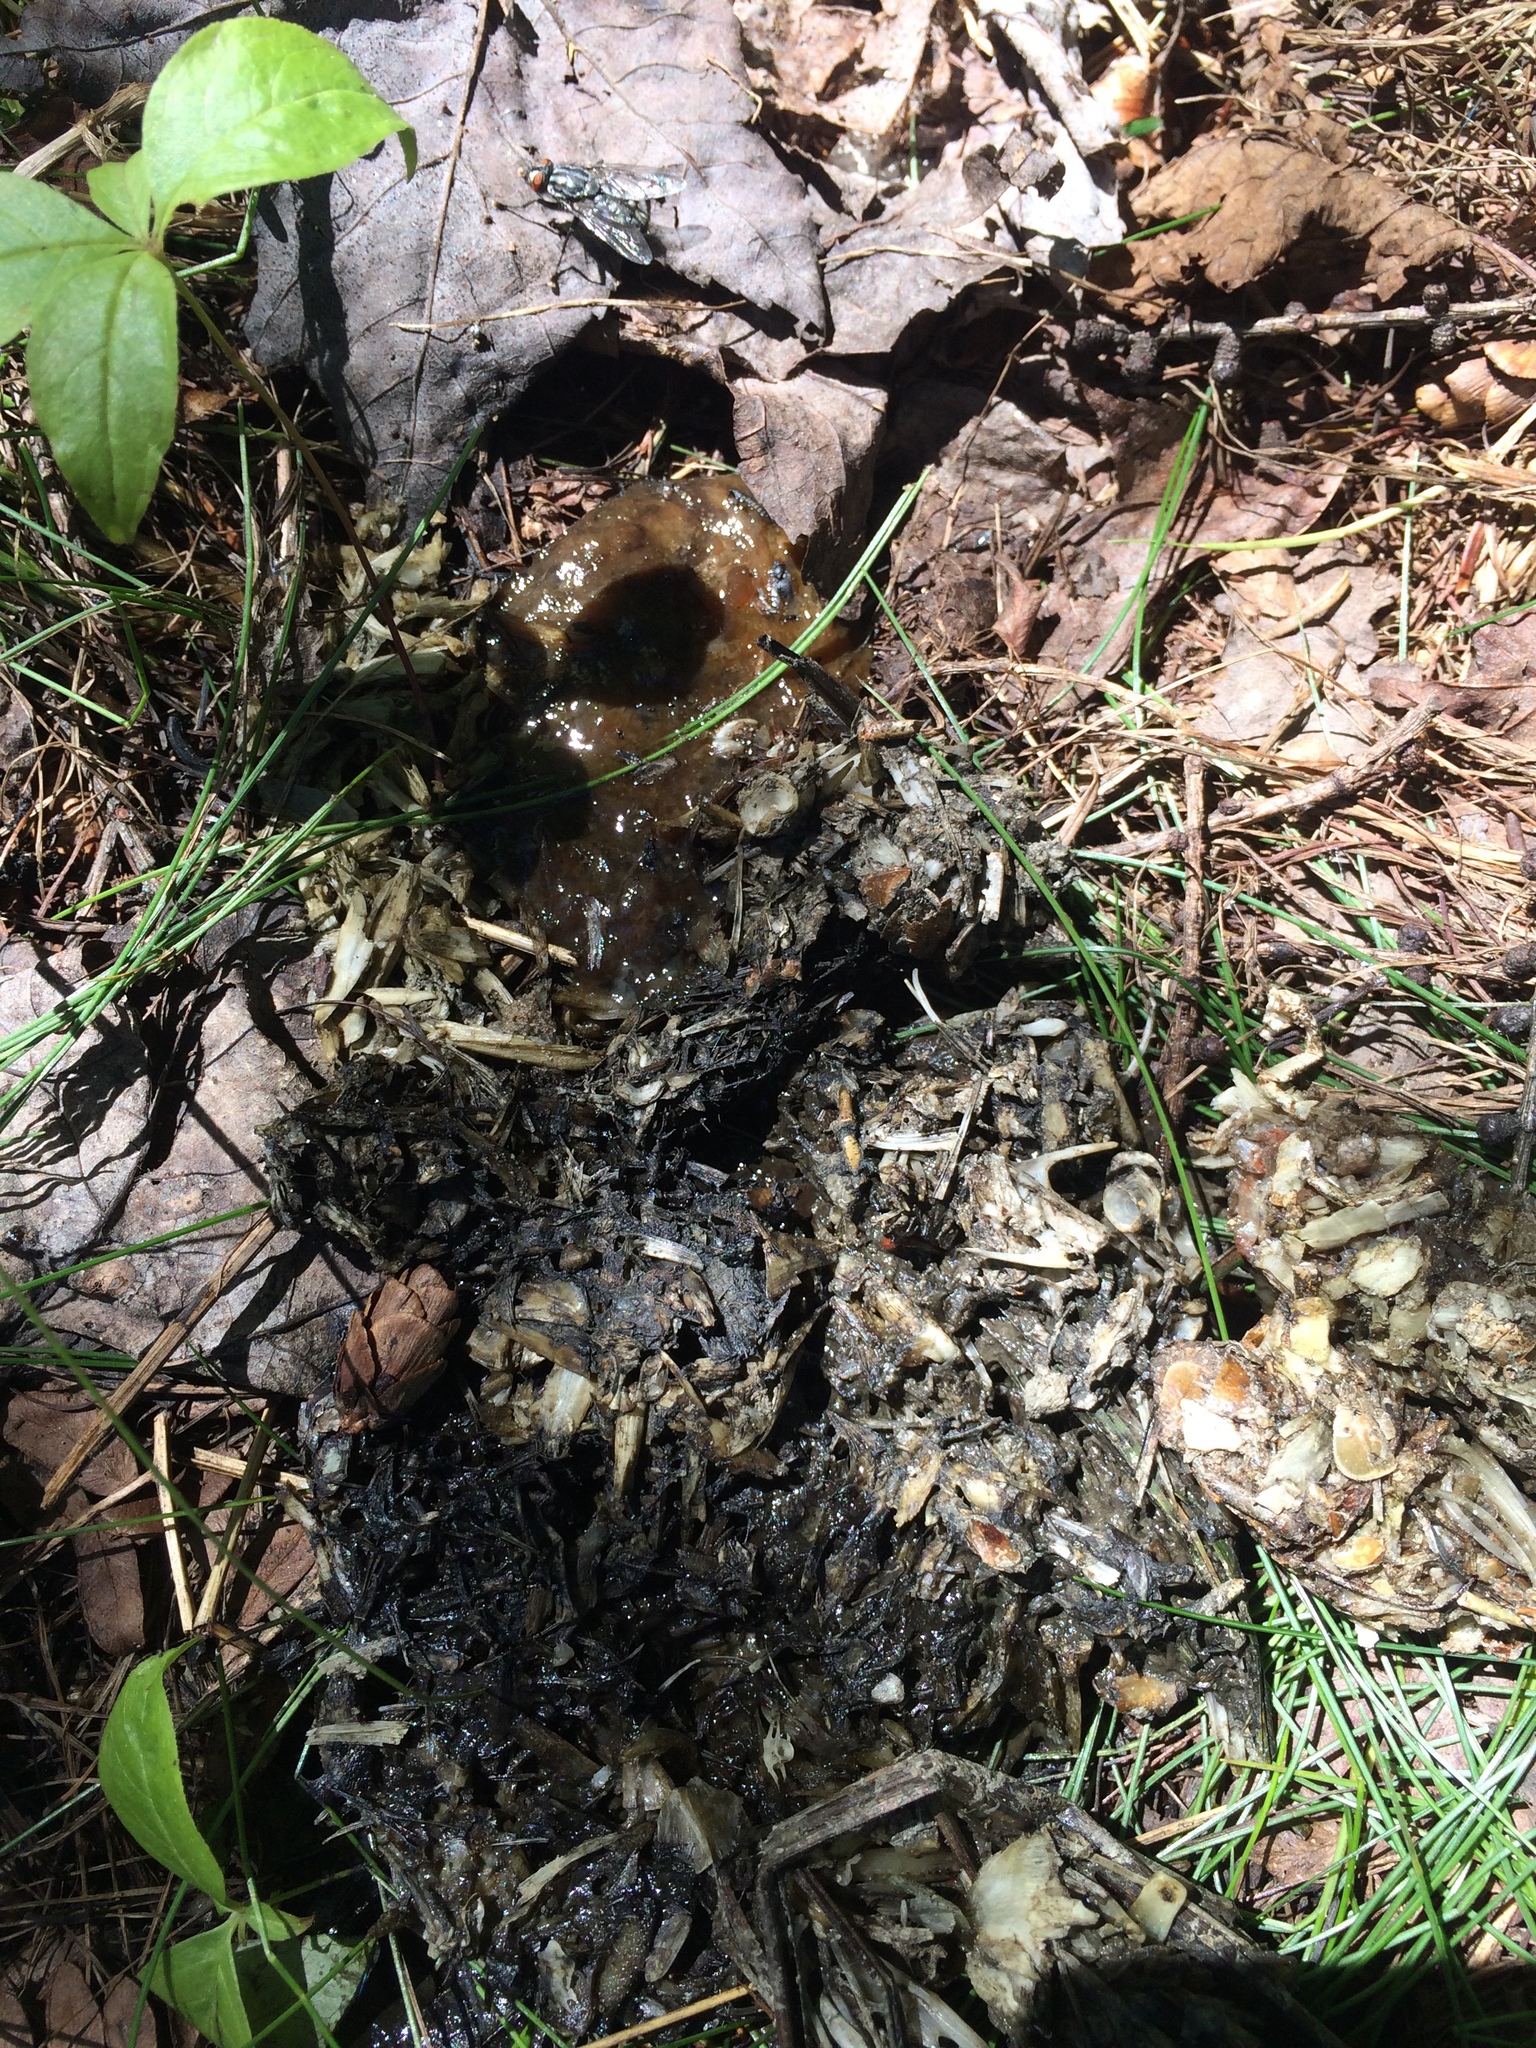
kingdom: Animalia
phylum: Chordata
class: Mammalia
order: Carnivora
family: Mustelidae
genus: Lontra
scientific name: Lontra canadensis
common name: North american river otter
